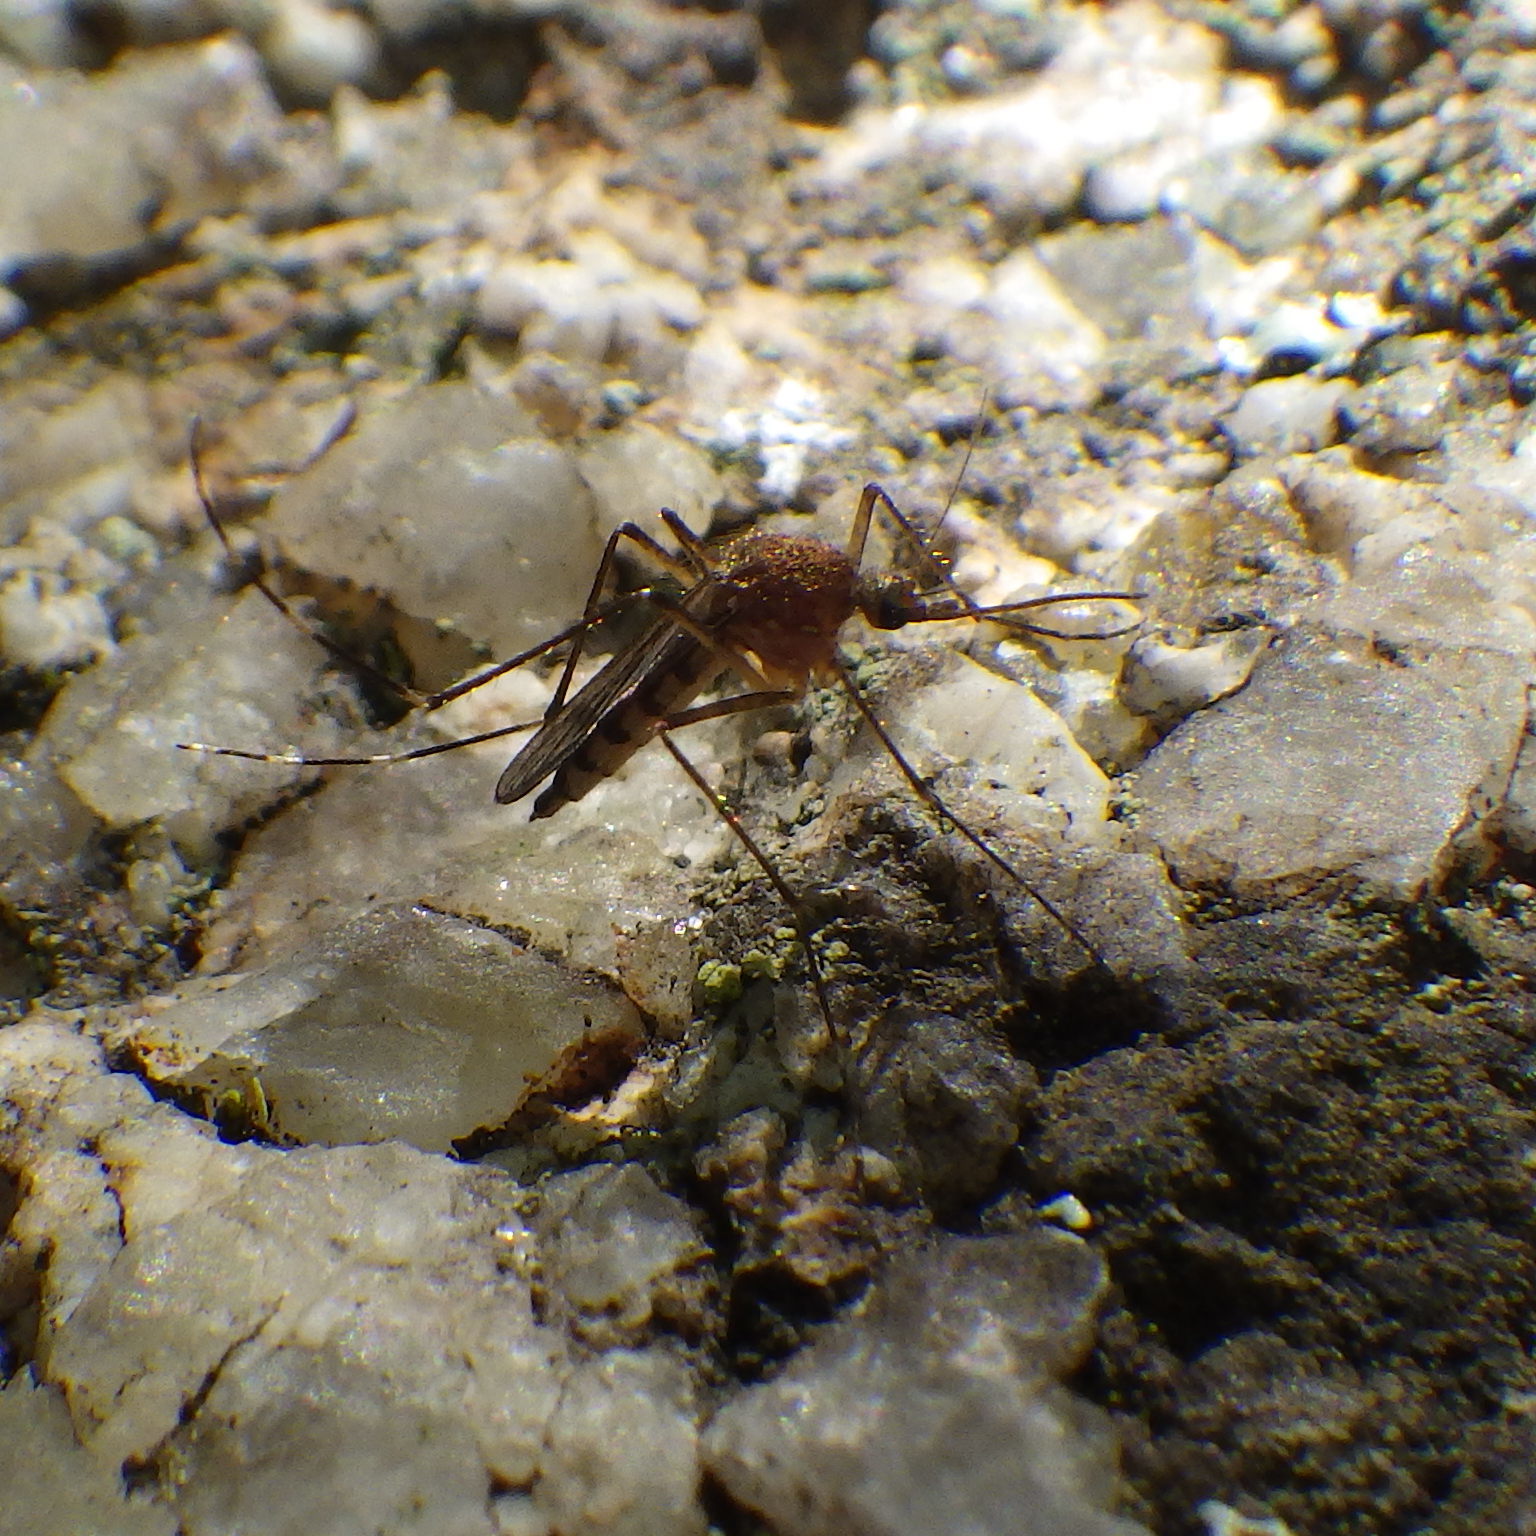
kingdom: Animalia
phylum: Arthropoda
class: Insecta
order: Diptera
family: Culicidae
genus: Aedes
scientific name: Aedes canadensis
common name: Woodland pool mosquito
